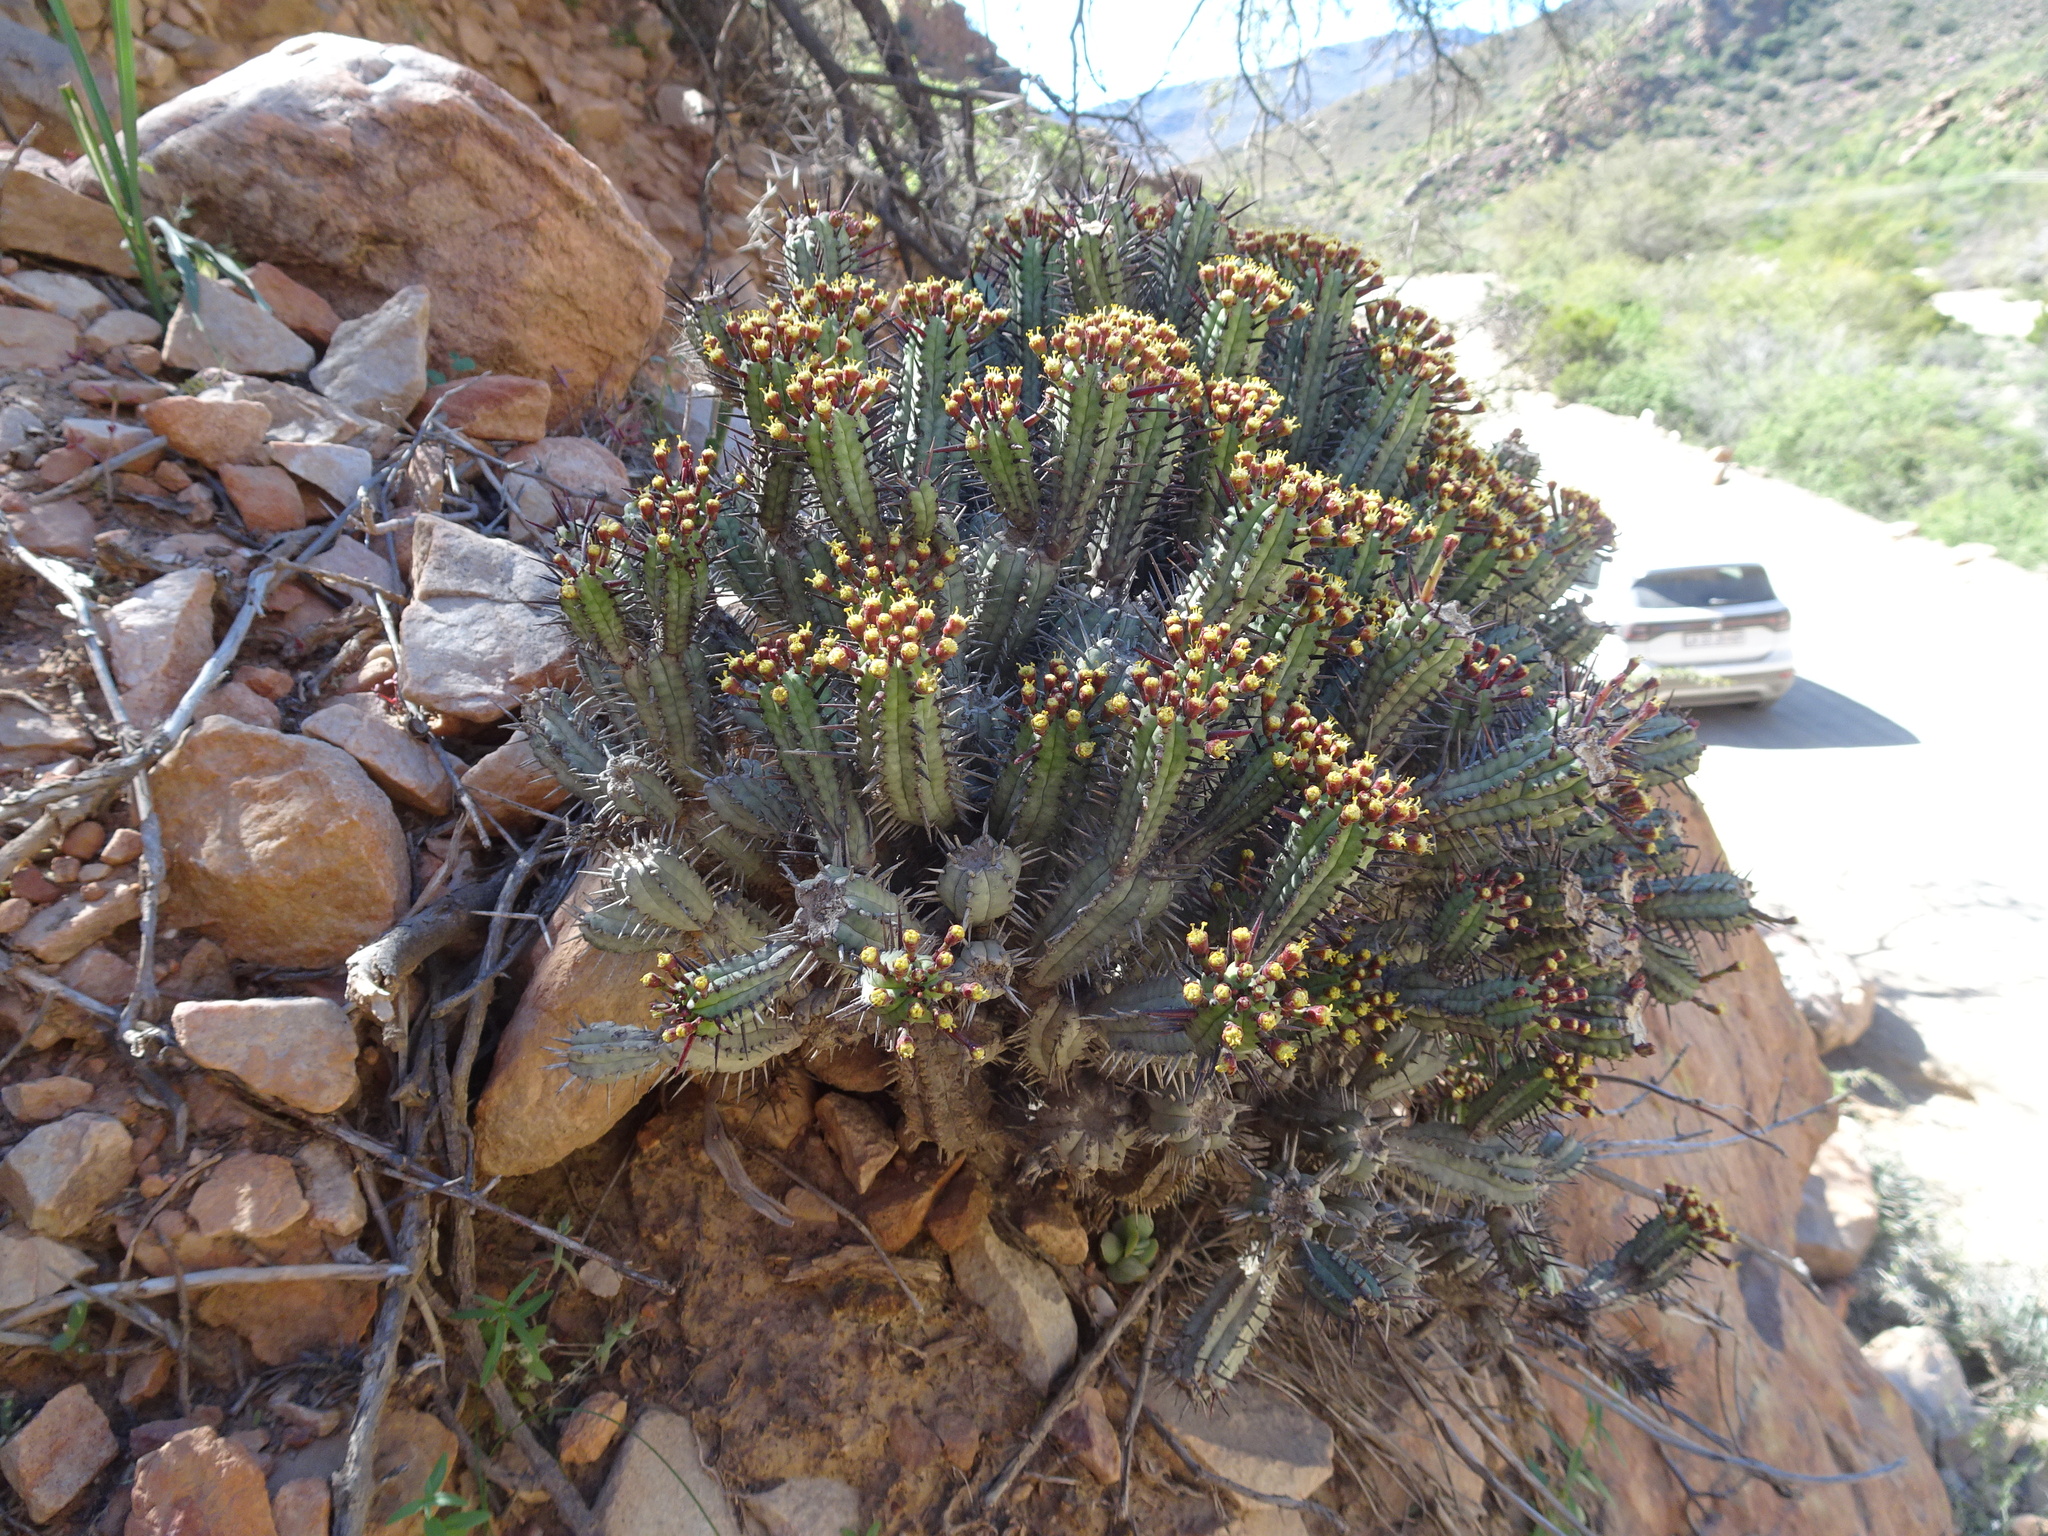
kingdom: Plantae
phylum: Tracheophyta
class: Magnoliopsida
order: Malpighiales
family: Euphorbiaceae
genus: Euphorbia
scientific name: Euphorbia heptagona
